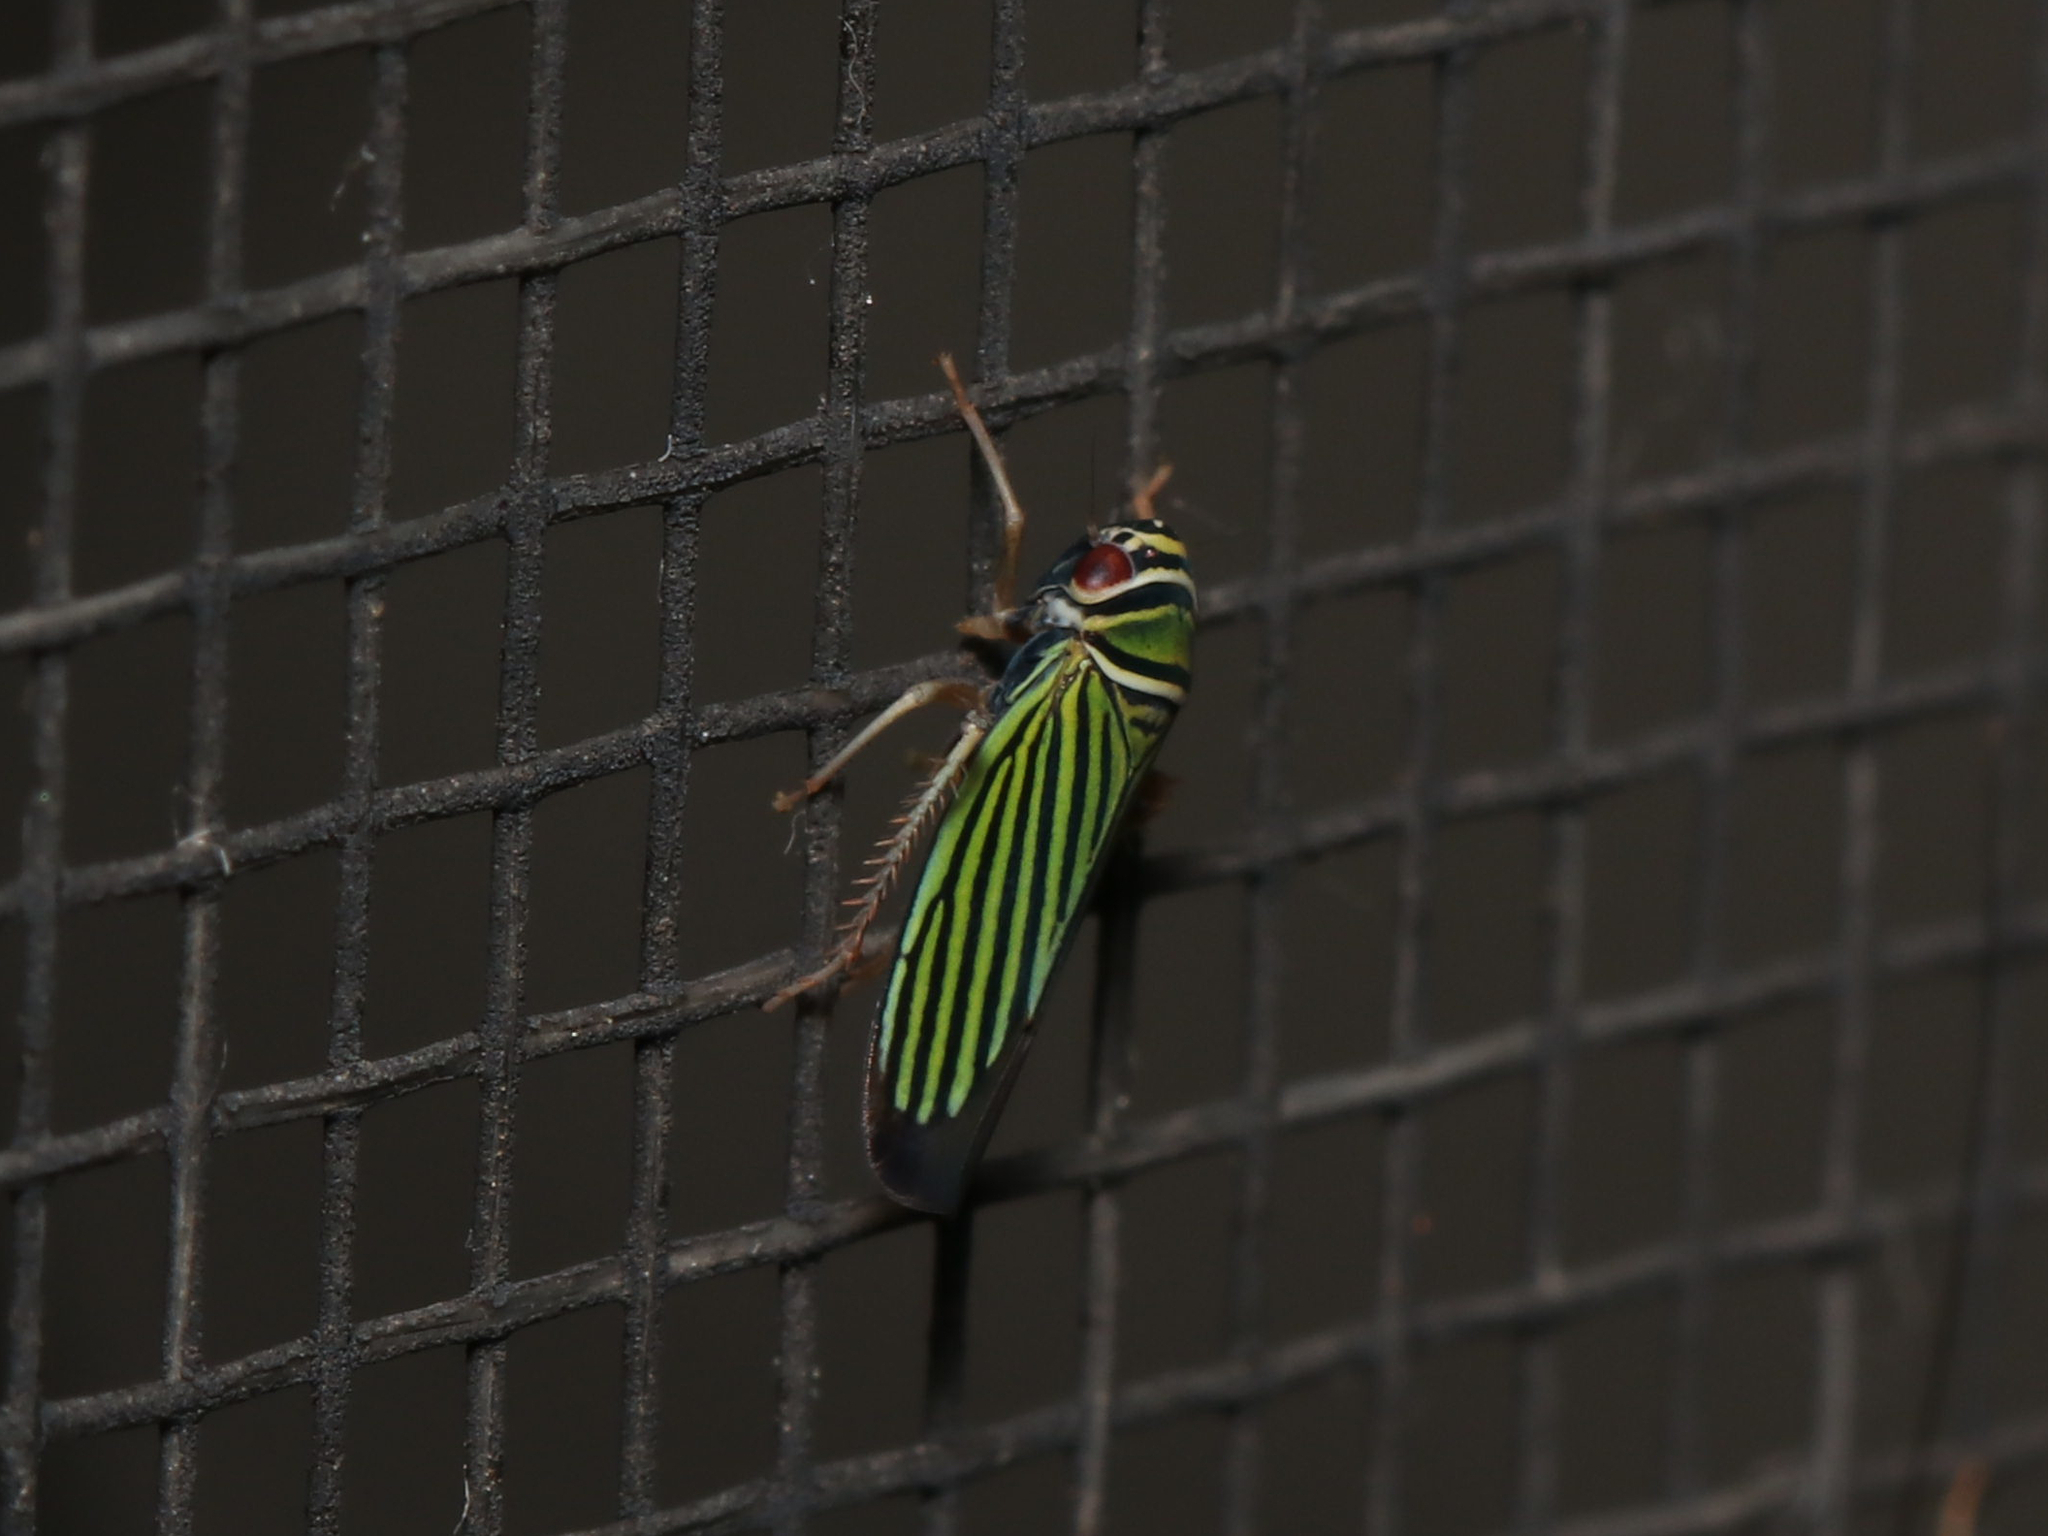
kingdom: Animalia
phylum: Arthropoda
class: Insecta
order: Hemiptera
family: Cicadellidae
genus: Tylozygus
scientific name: Tylozygus bifidus
